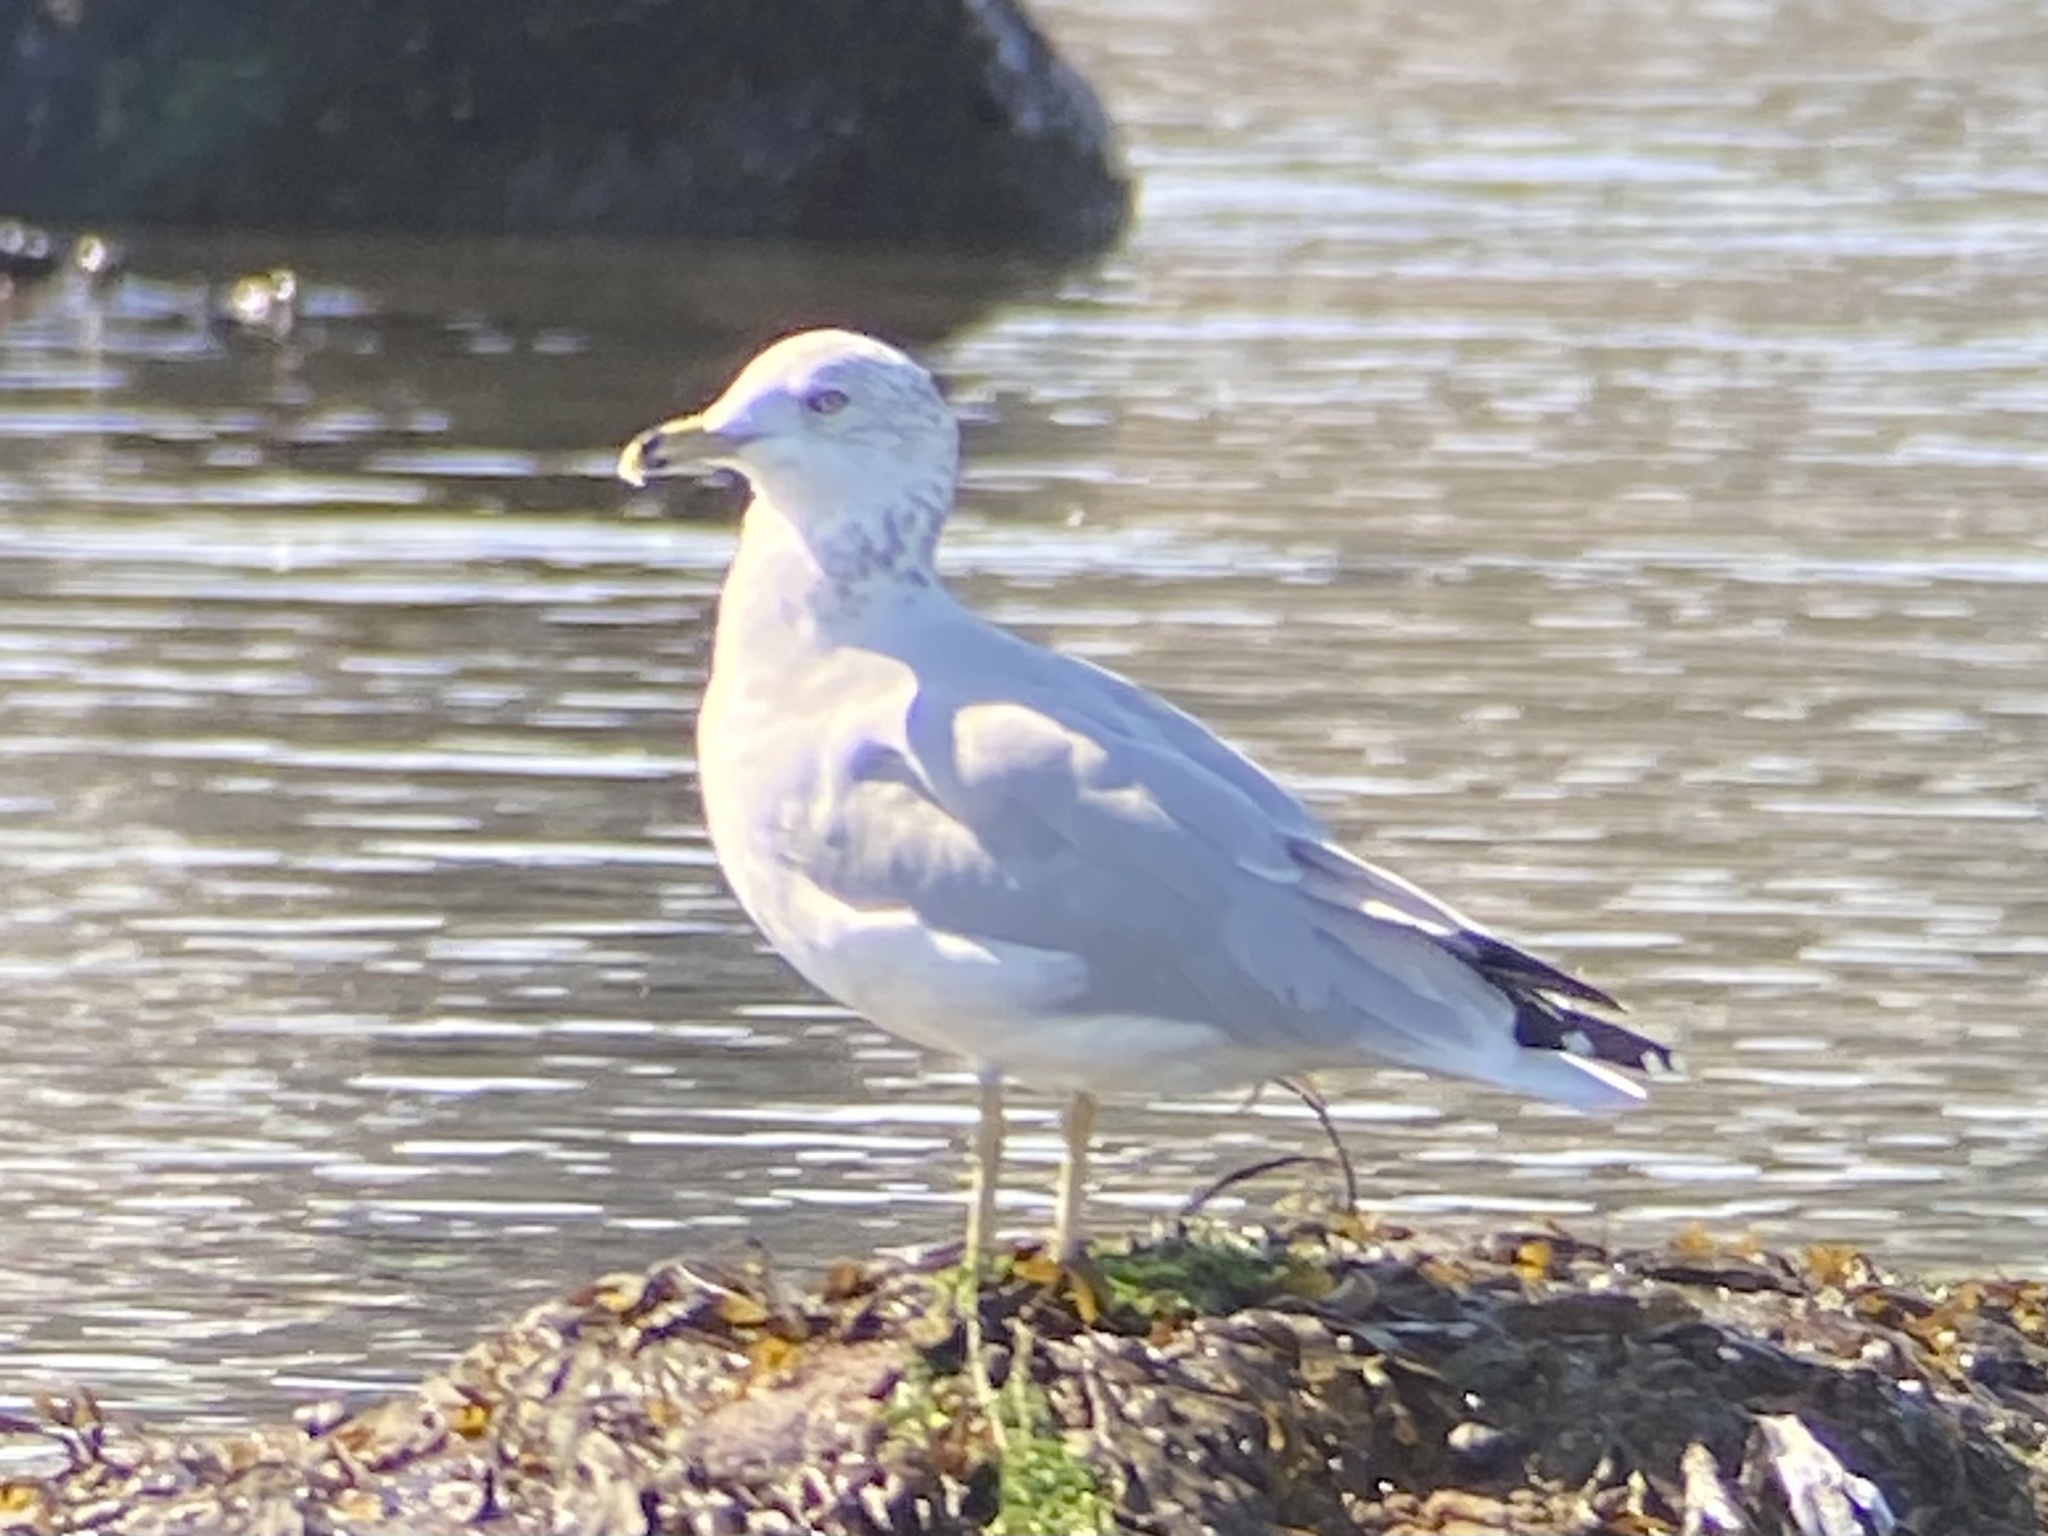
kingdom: Animalia
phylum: Chordata
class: Aves
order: Charadriiformes
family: Laridae
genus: Larus
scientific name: Larus delawarensis
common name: Ring-billed gull
